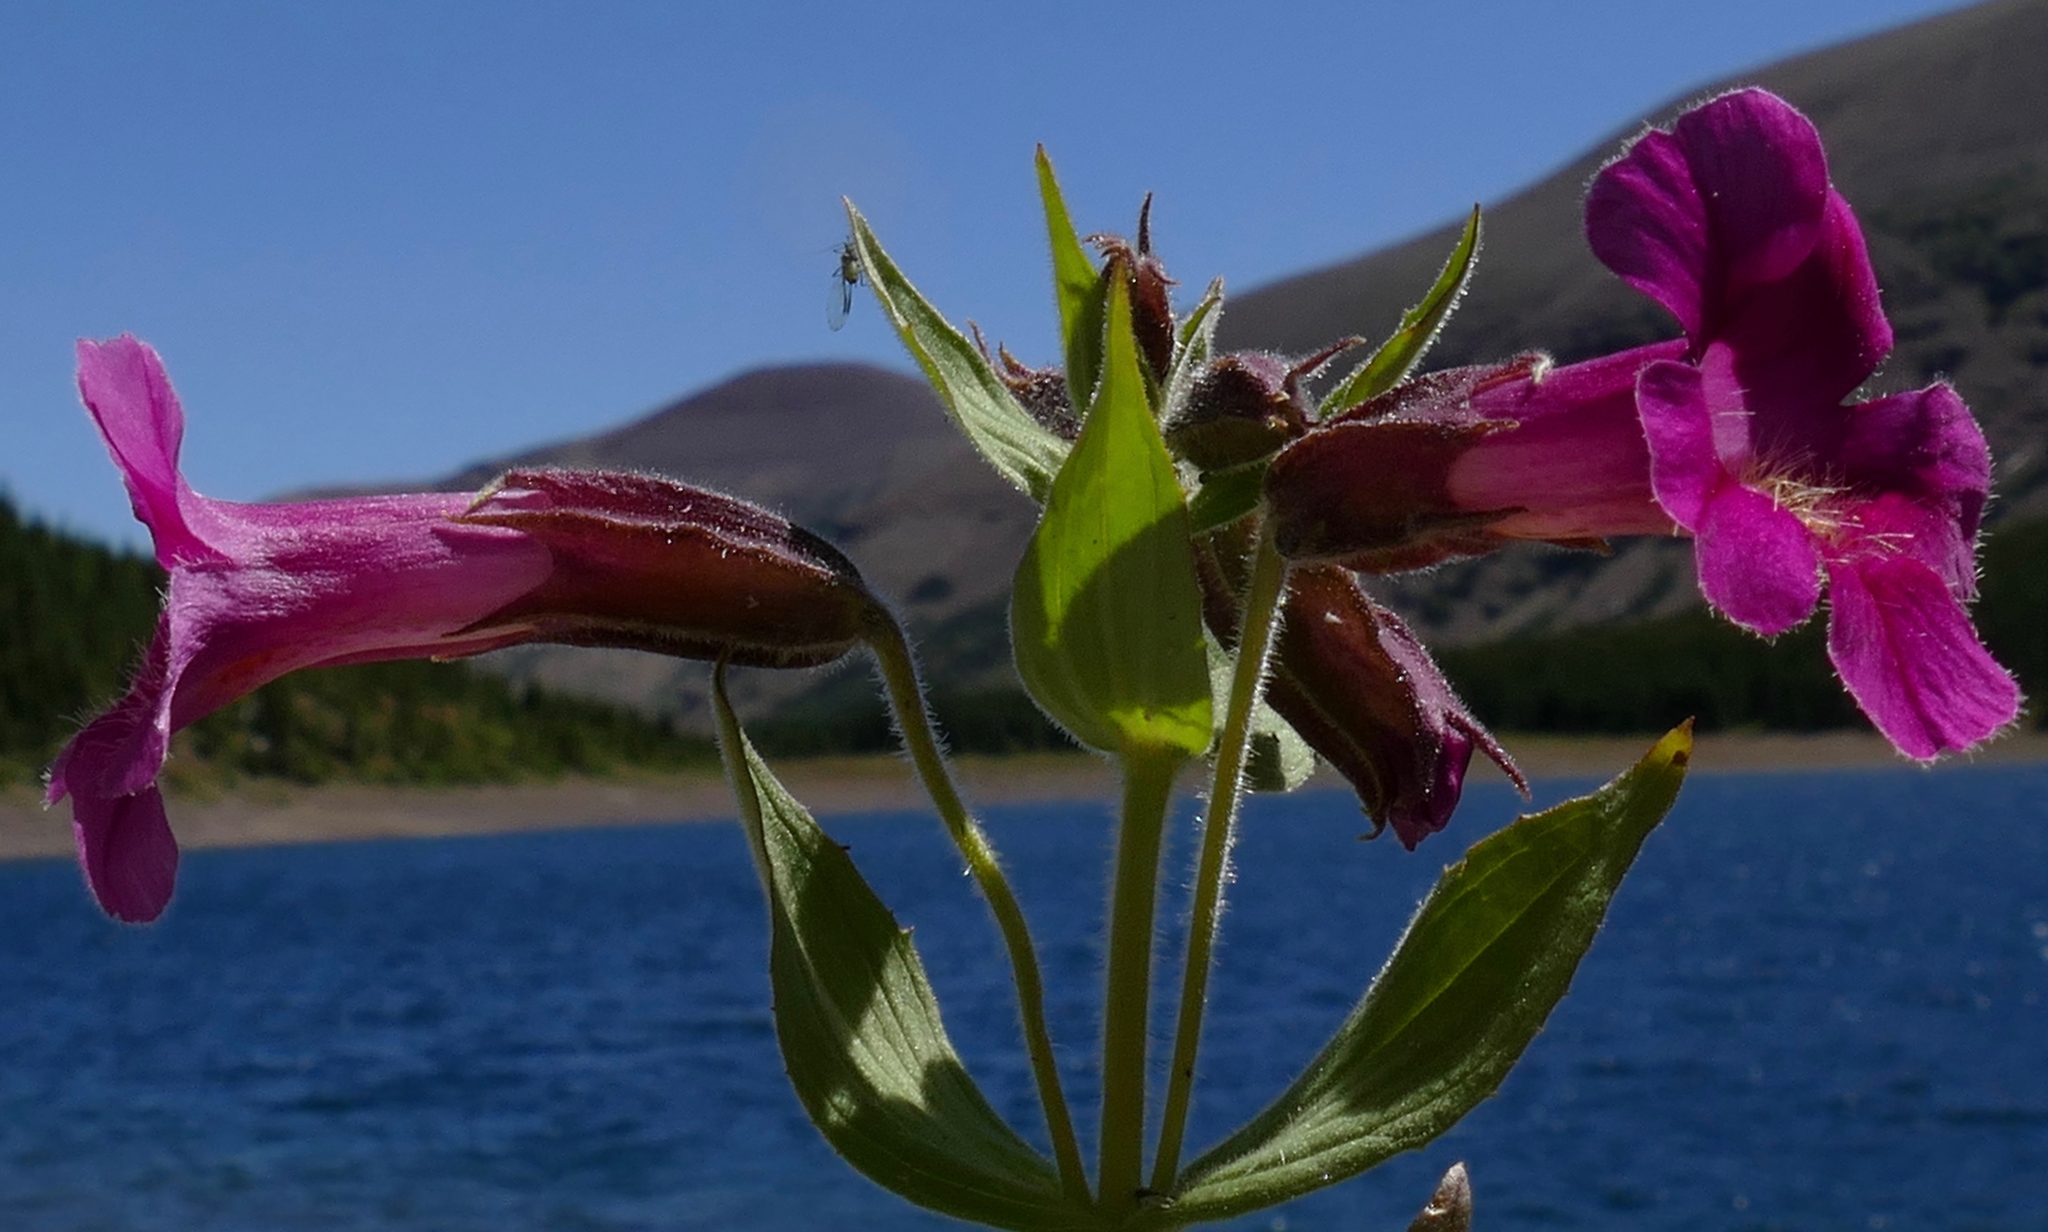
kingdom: Plantae
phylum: Tracheophyta
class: Magnoliopsida
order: Lamiales
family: Phrymaceae
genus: Erythranthe
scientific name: Erythranthe lewisii
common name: Lewis's monkey-flower
